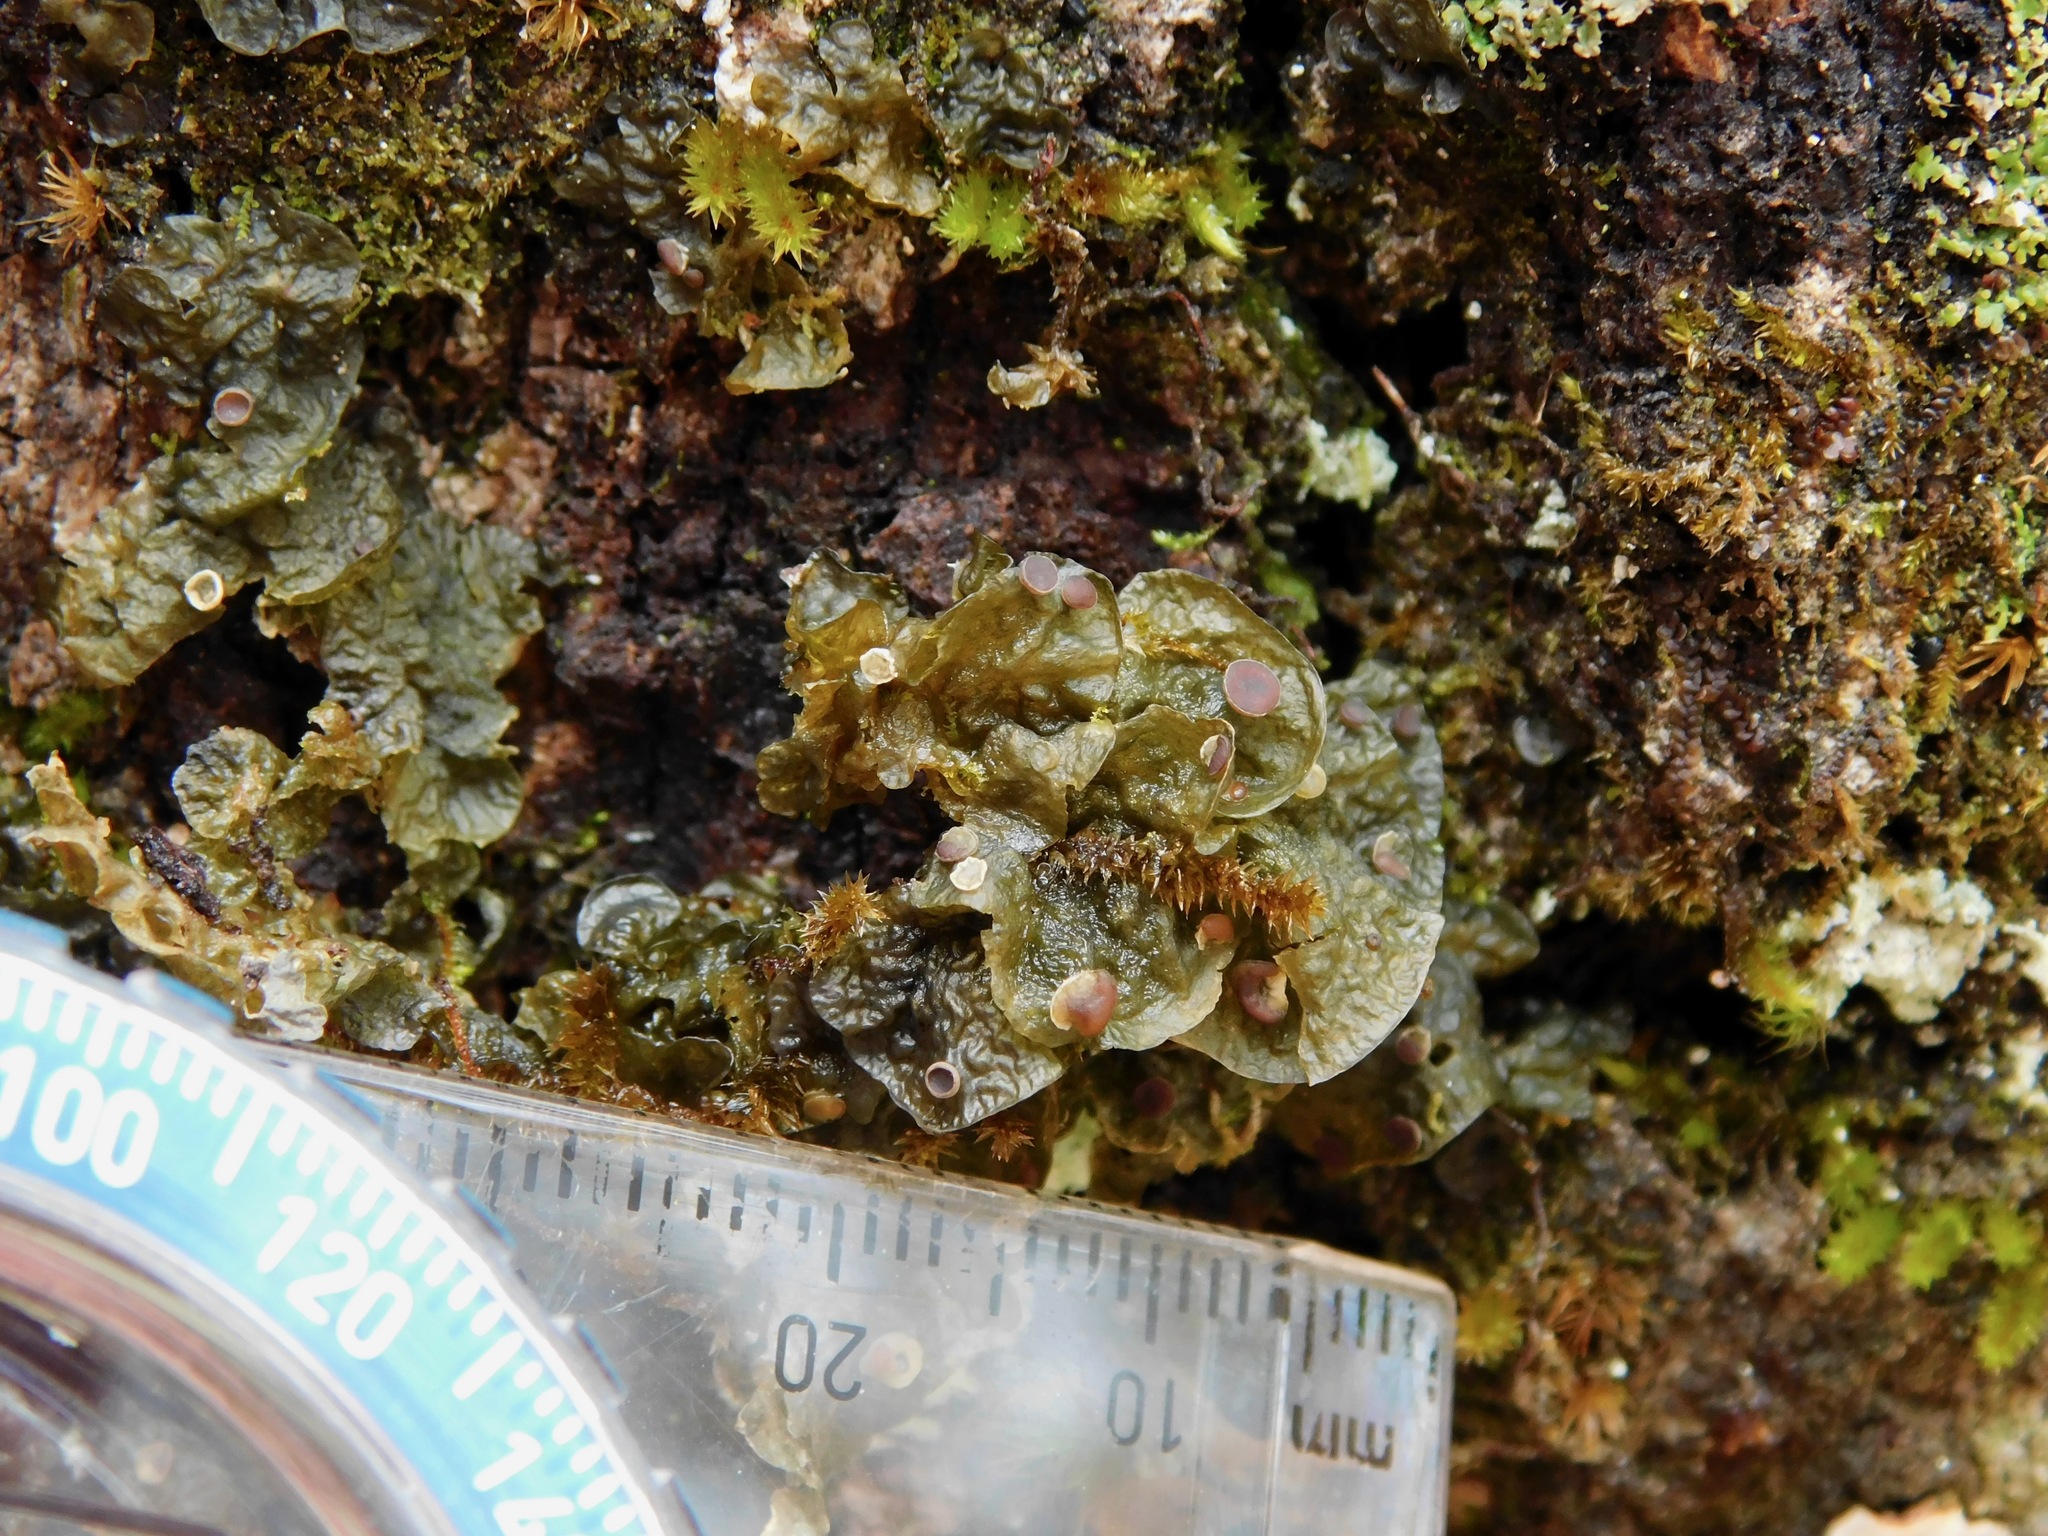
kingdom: Fungi
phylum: Ascomycota
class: Lecanoromycetes
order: Peltigerales
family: Collemataceae
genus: Leptogium
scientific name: Leptogium corticola
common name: Blistered jellyskin lichen
